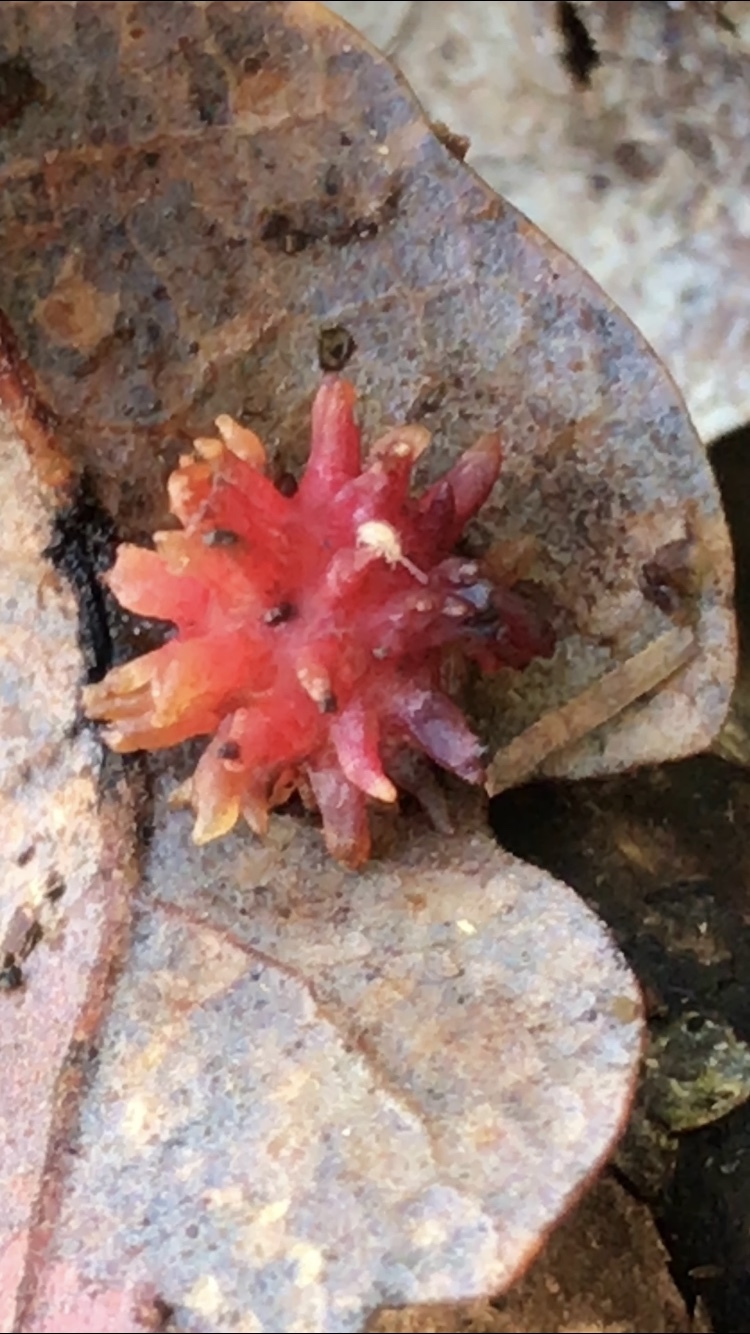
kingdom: Animalia
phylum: Arthropoda
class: Insecta
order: Hymenoptera
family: Cynipidae
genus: Cynips
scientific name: Cynips
